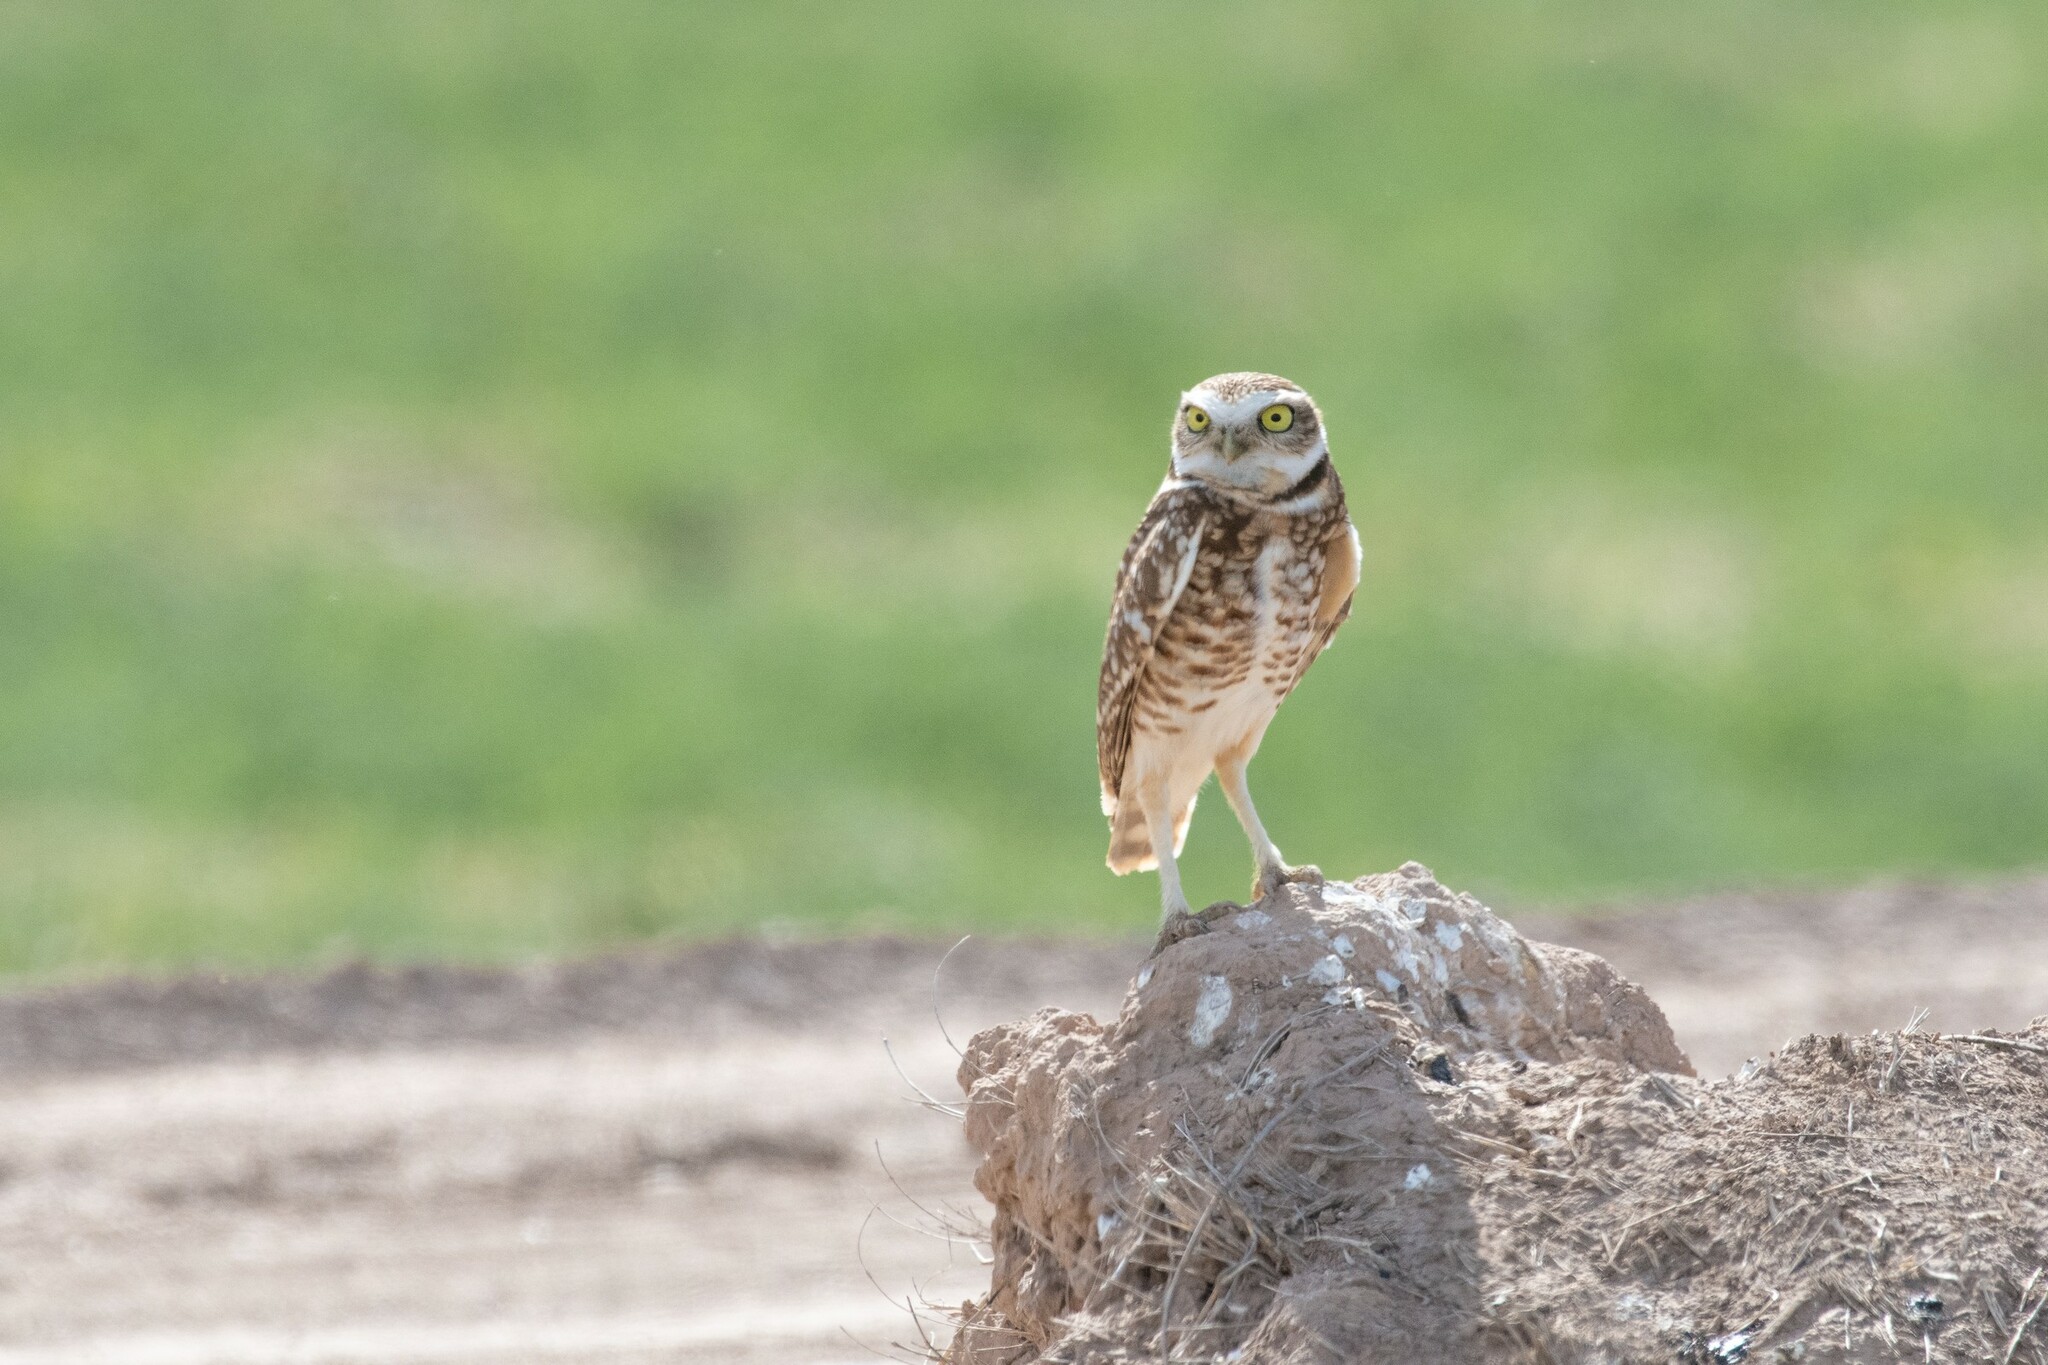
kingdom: Animalia
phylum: Chordata
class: Aves
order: Strigiformes
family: Strigidae
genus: Athene
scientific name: Athene cunicularia
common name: Burrowing owl
